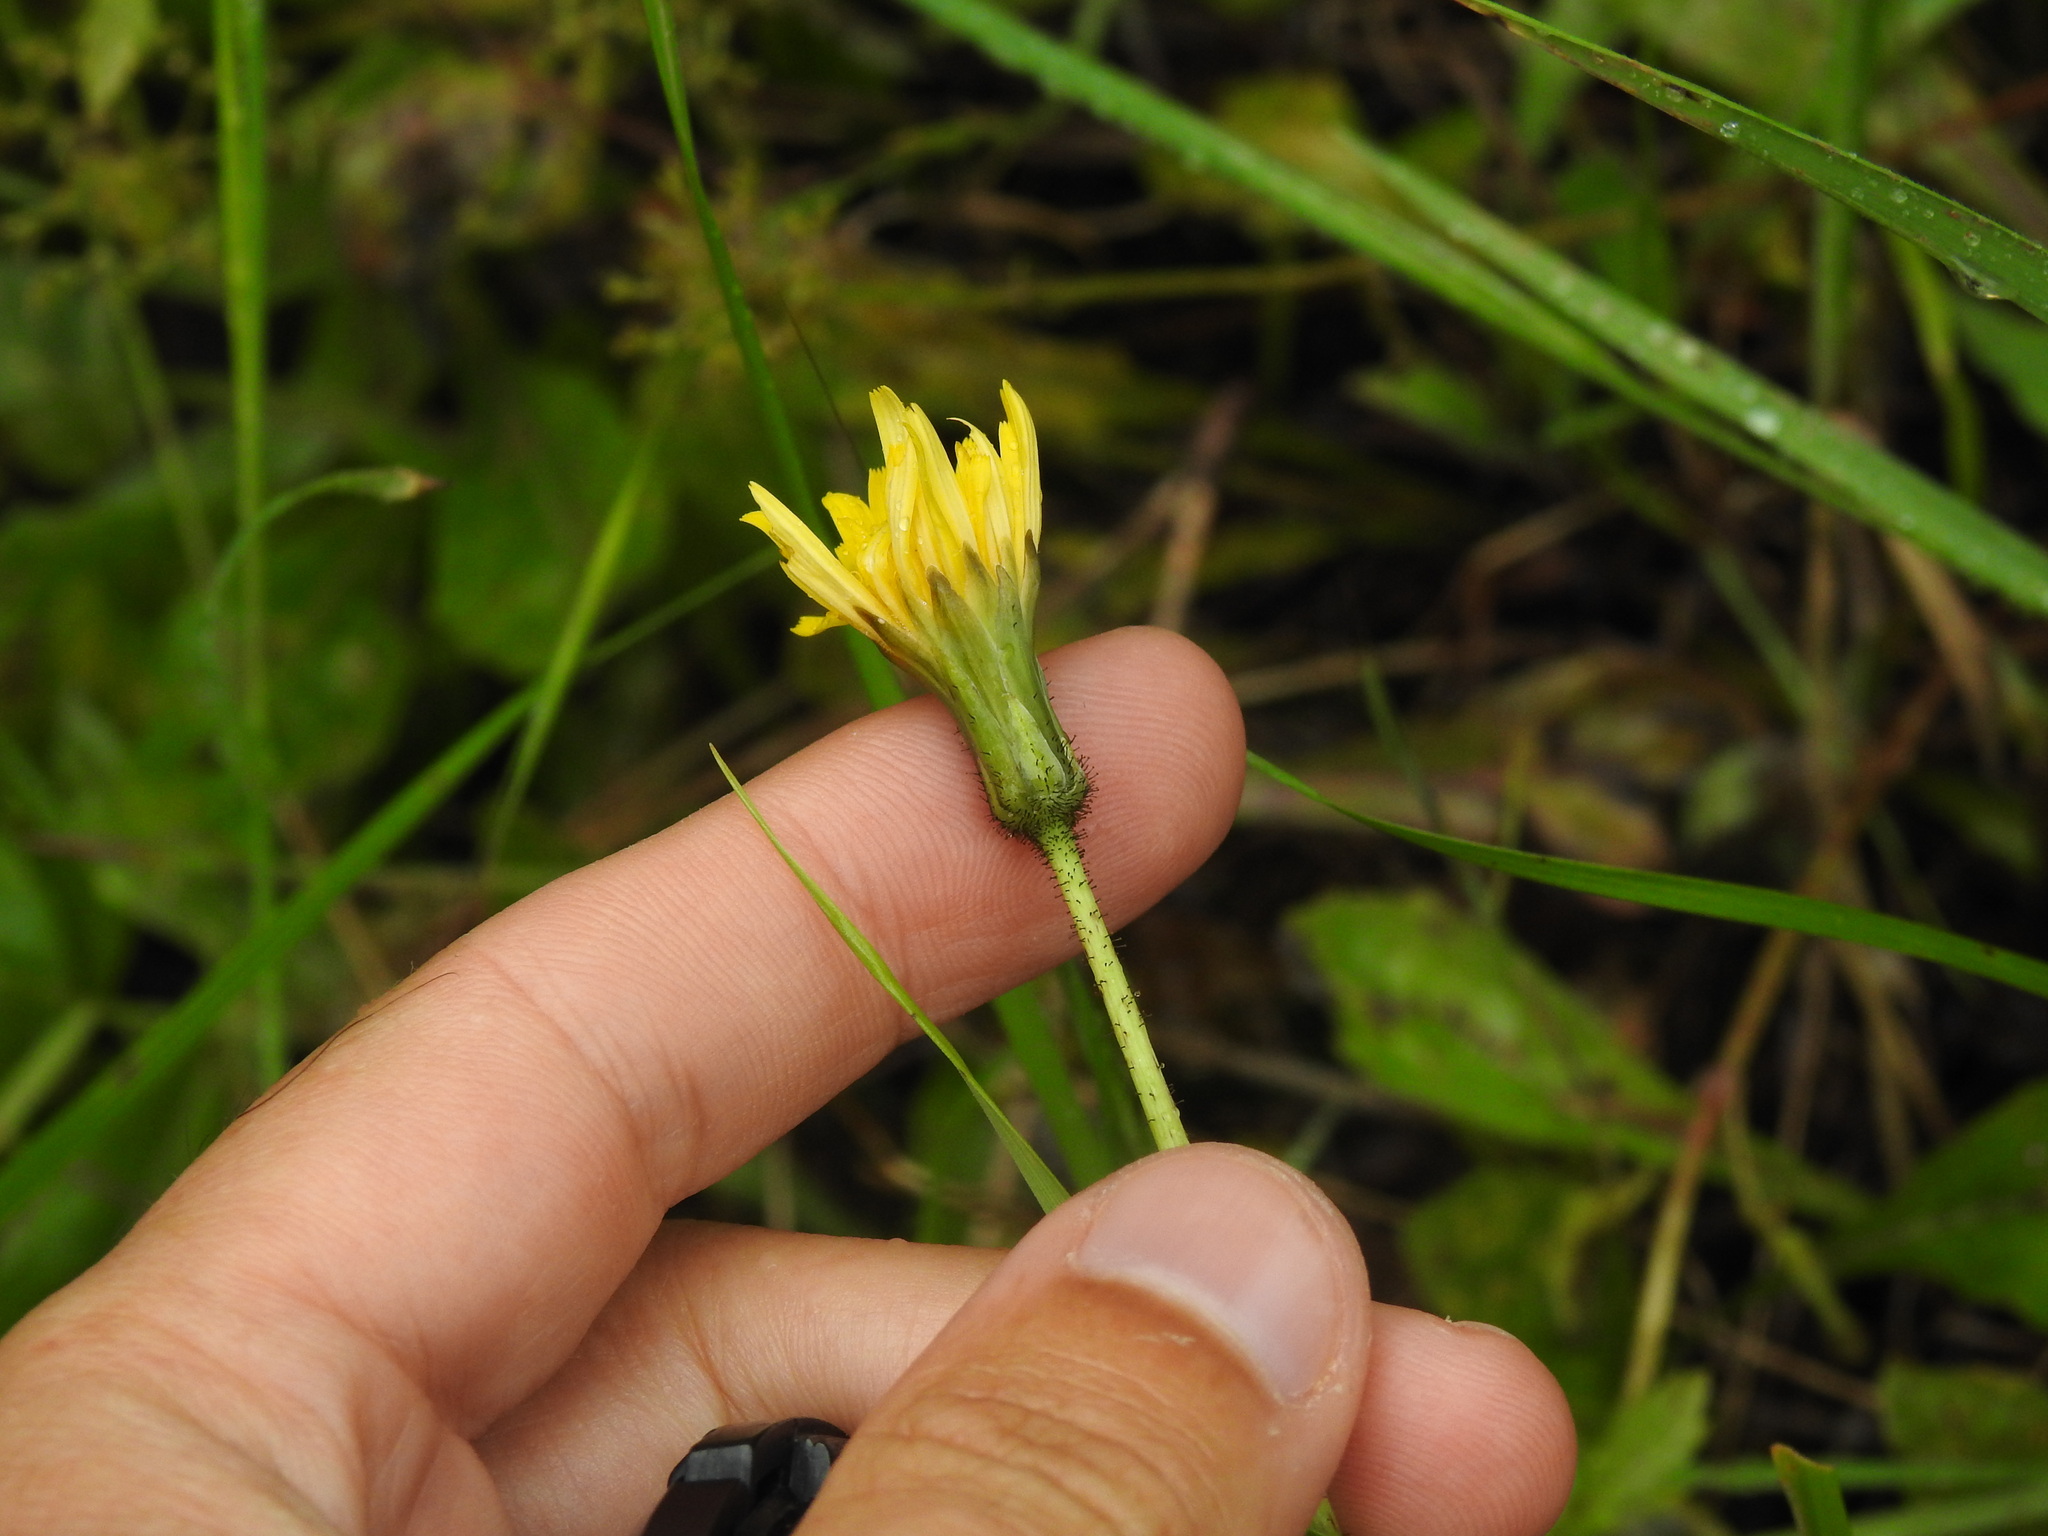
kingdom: Plantae
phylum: Tracheophyta
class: Magnoliopsida
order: Asterales
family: Asteraceae
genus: Aetheorhiza
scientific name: Aetheorhiza bulbosa
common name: Tuberous hawk's-beard
